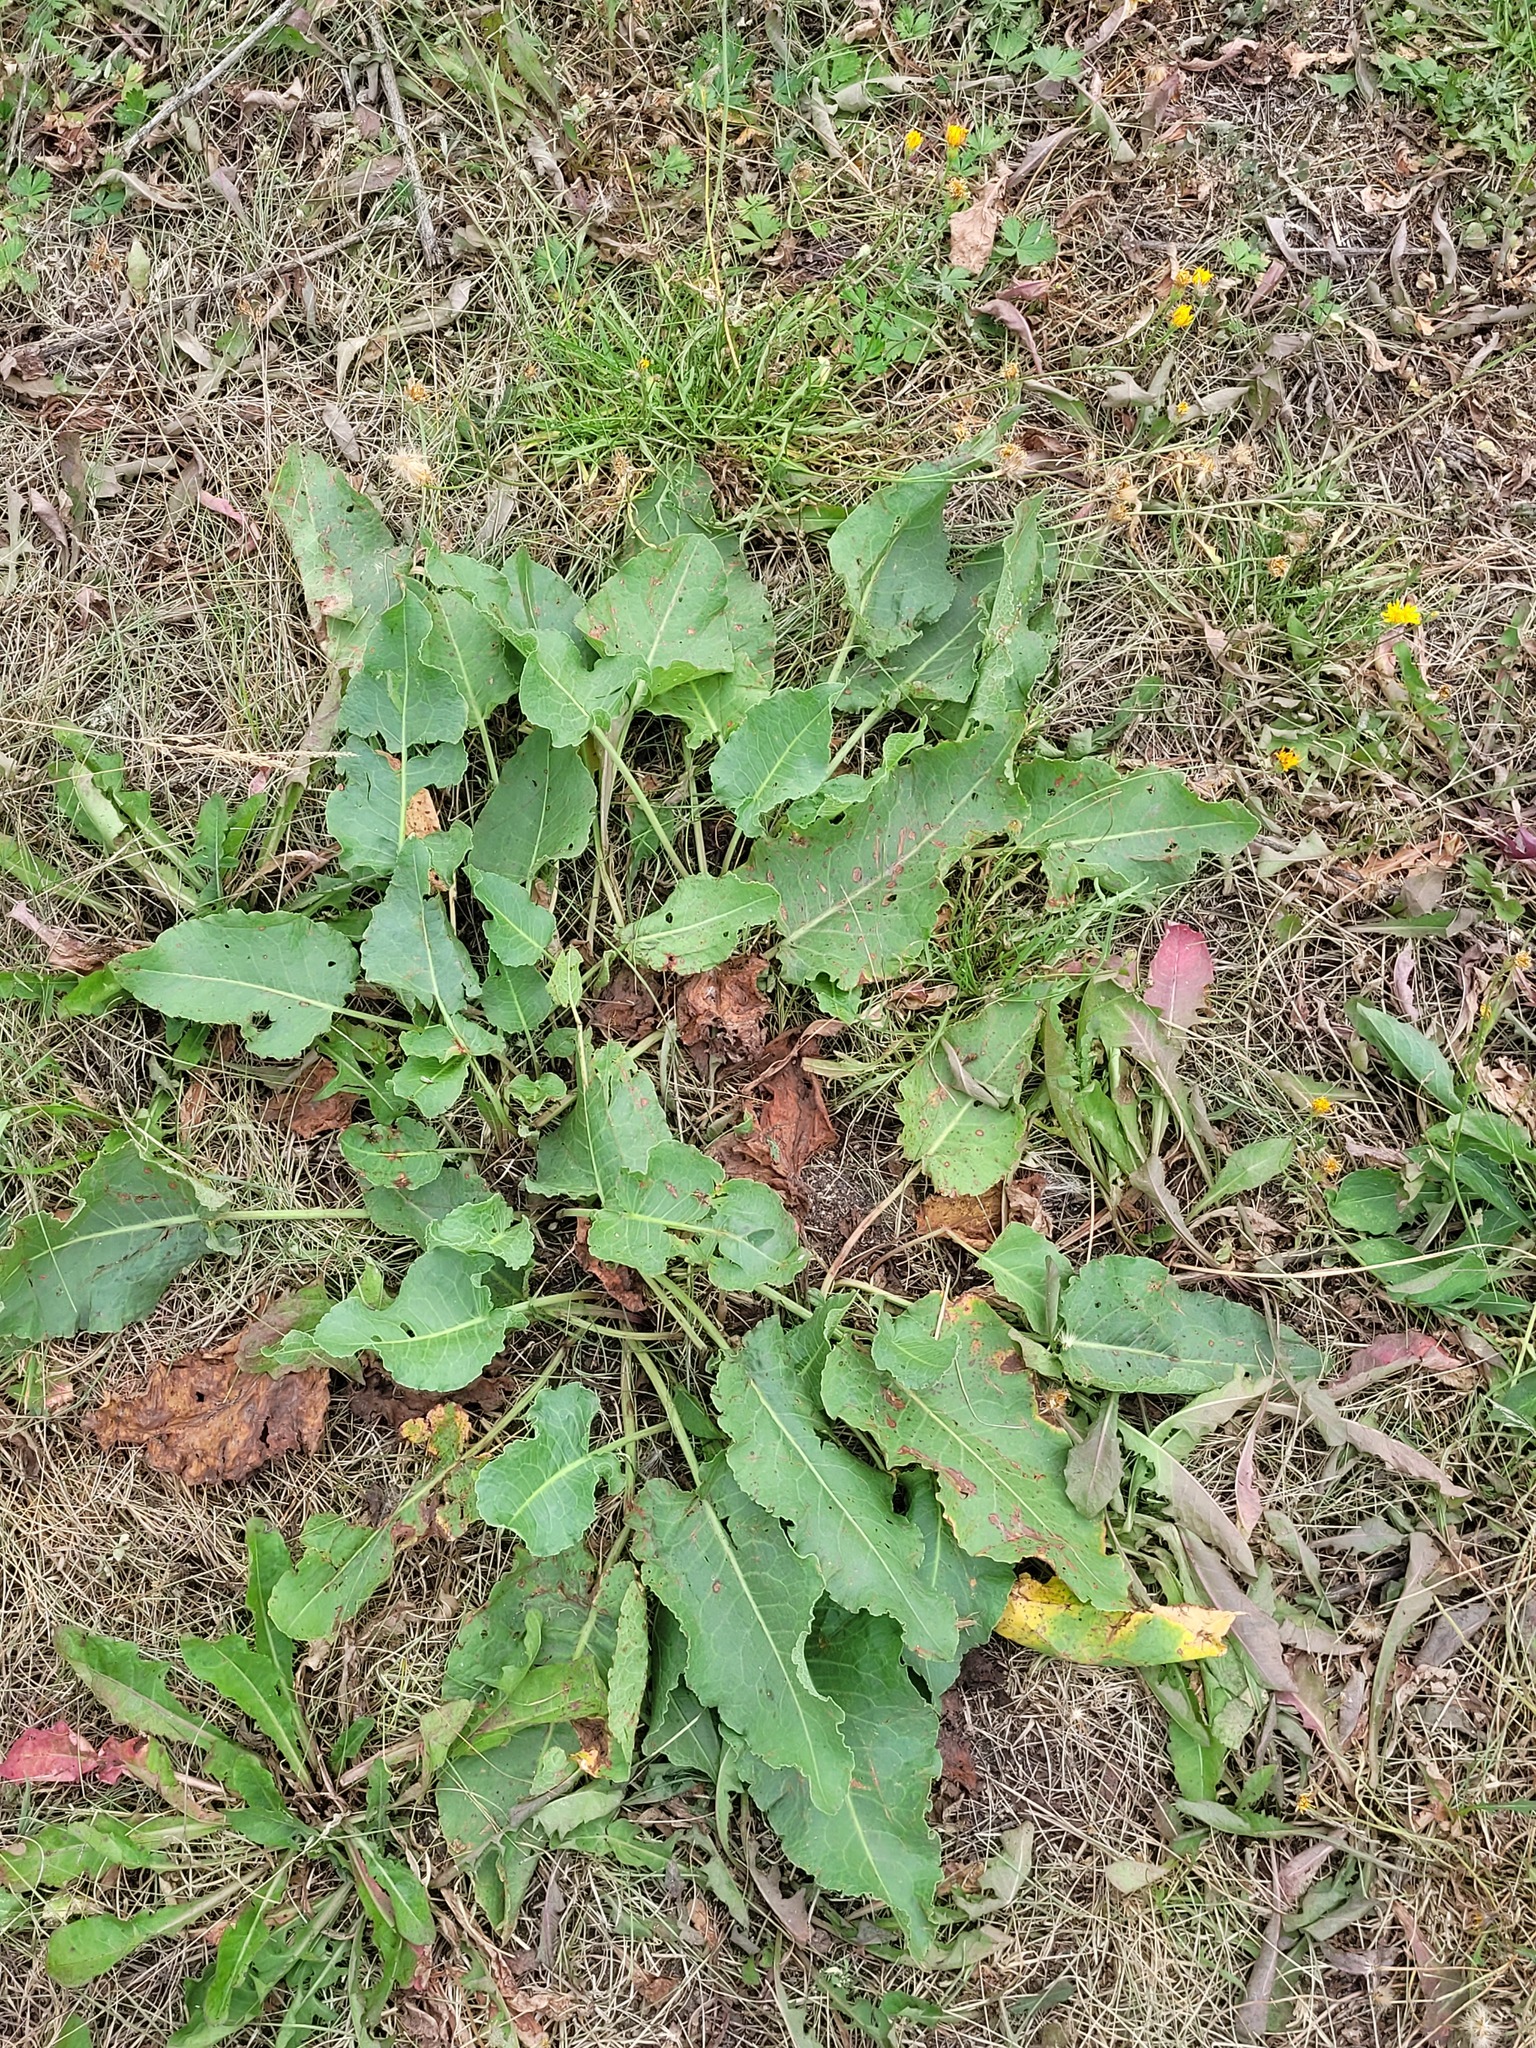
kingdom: Plantae
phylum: Tracheophyta
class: Magnoliopsida
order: Caryophyllales
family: Polygonaceae
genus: Rumex
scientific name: Rumex confertus
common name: Russian dock
